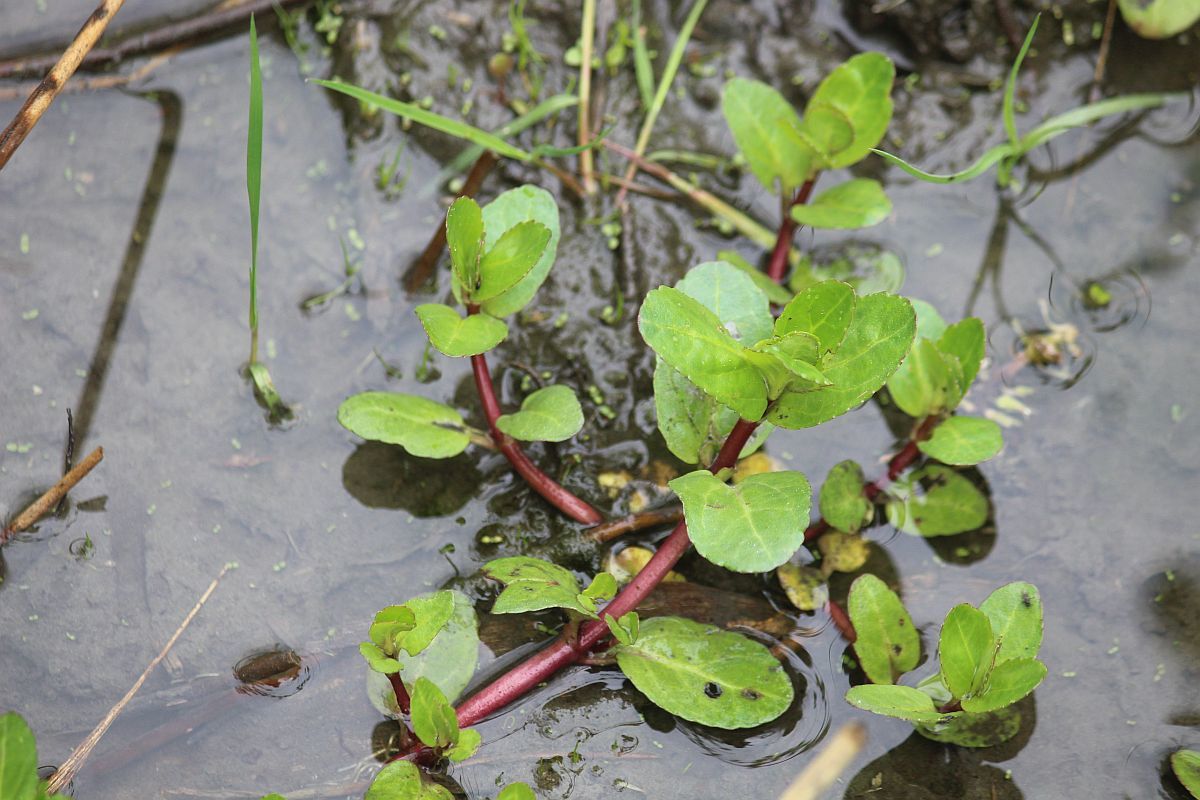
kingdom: Plantae
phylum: Tracheophyta
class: Magnoliopsida
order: Lamiales
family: Plantaginaceae
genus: Veronica
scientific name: Veronica beccabunga
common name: Brooklime
